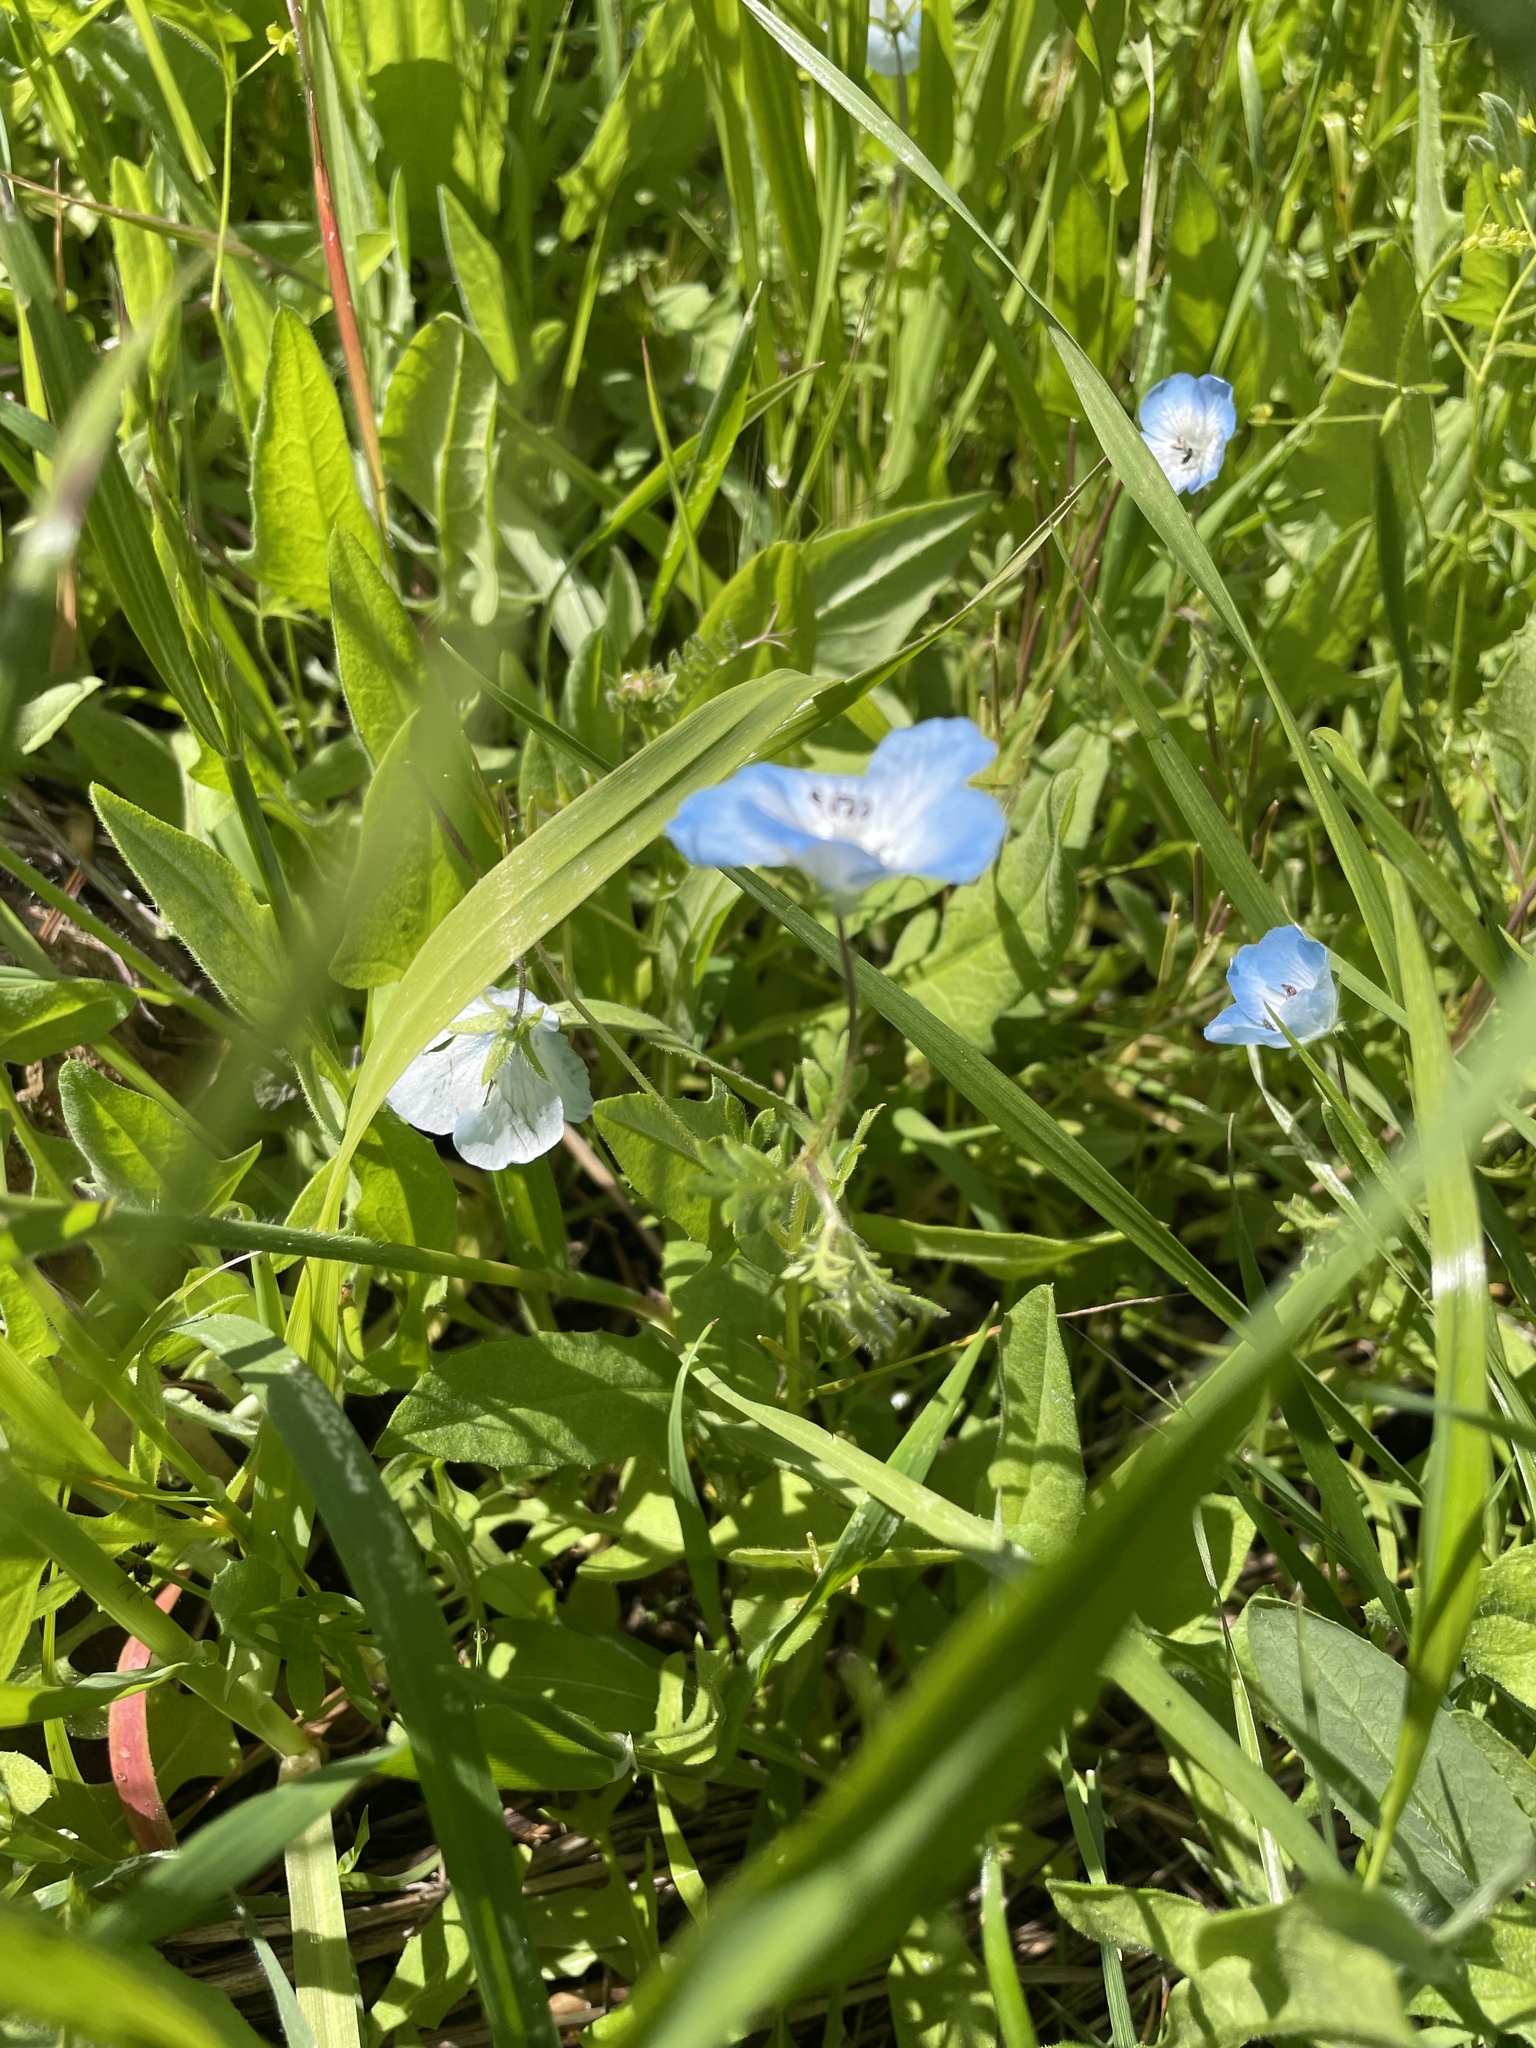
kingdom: Plantae
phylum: Tracheophyta
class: Magnoliopsida
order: Boraginales
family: Hydrophyllaceae
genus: Nemophila
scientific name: Nemophila menziesii
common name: Baby's-blue-eyes
